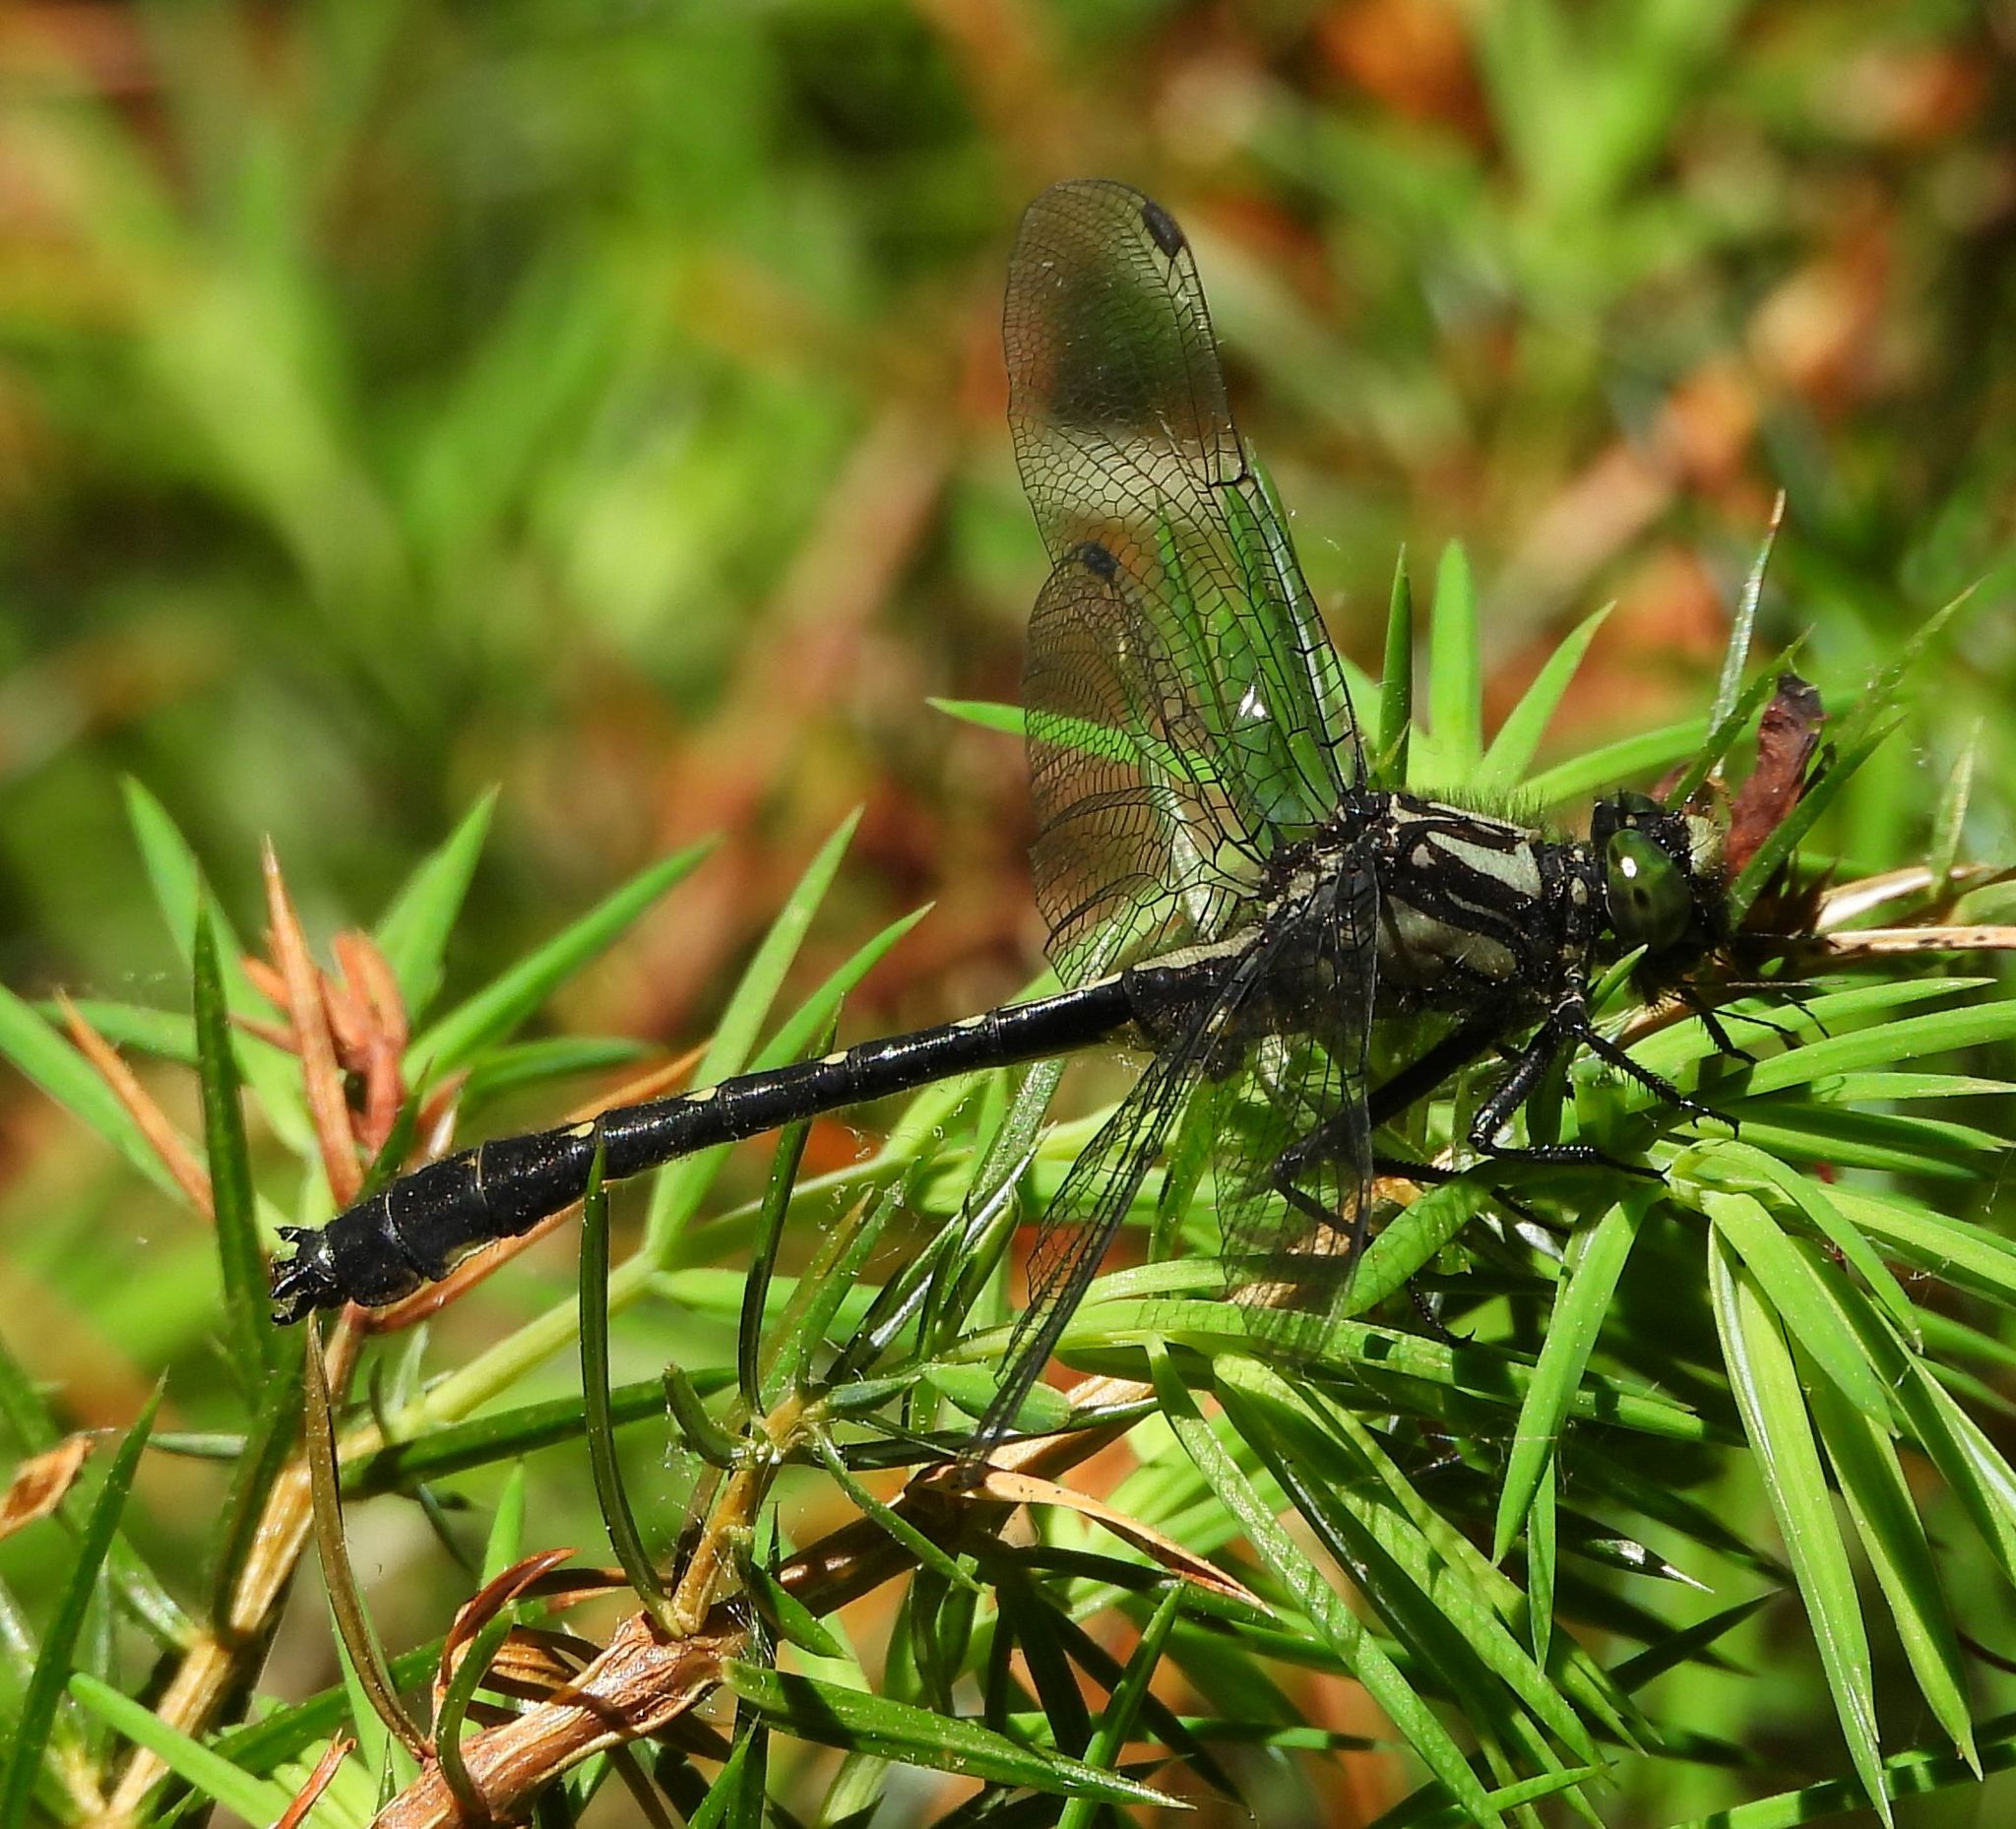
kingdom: Animalia
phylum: Arthropoda
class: Insecta
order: Odonata
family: Gomphidae
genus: Hylogomphus
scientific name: Hylogomphus adelphus
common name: Mustached clubtail
